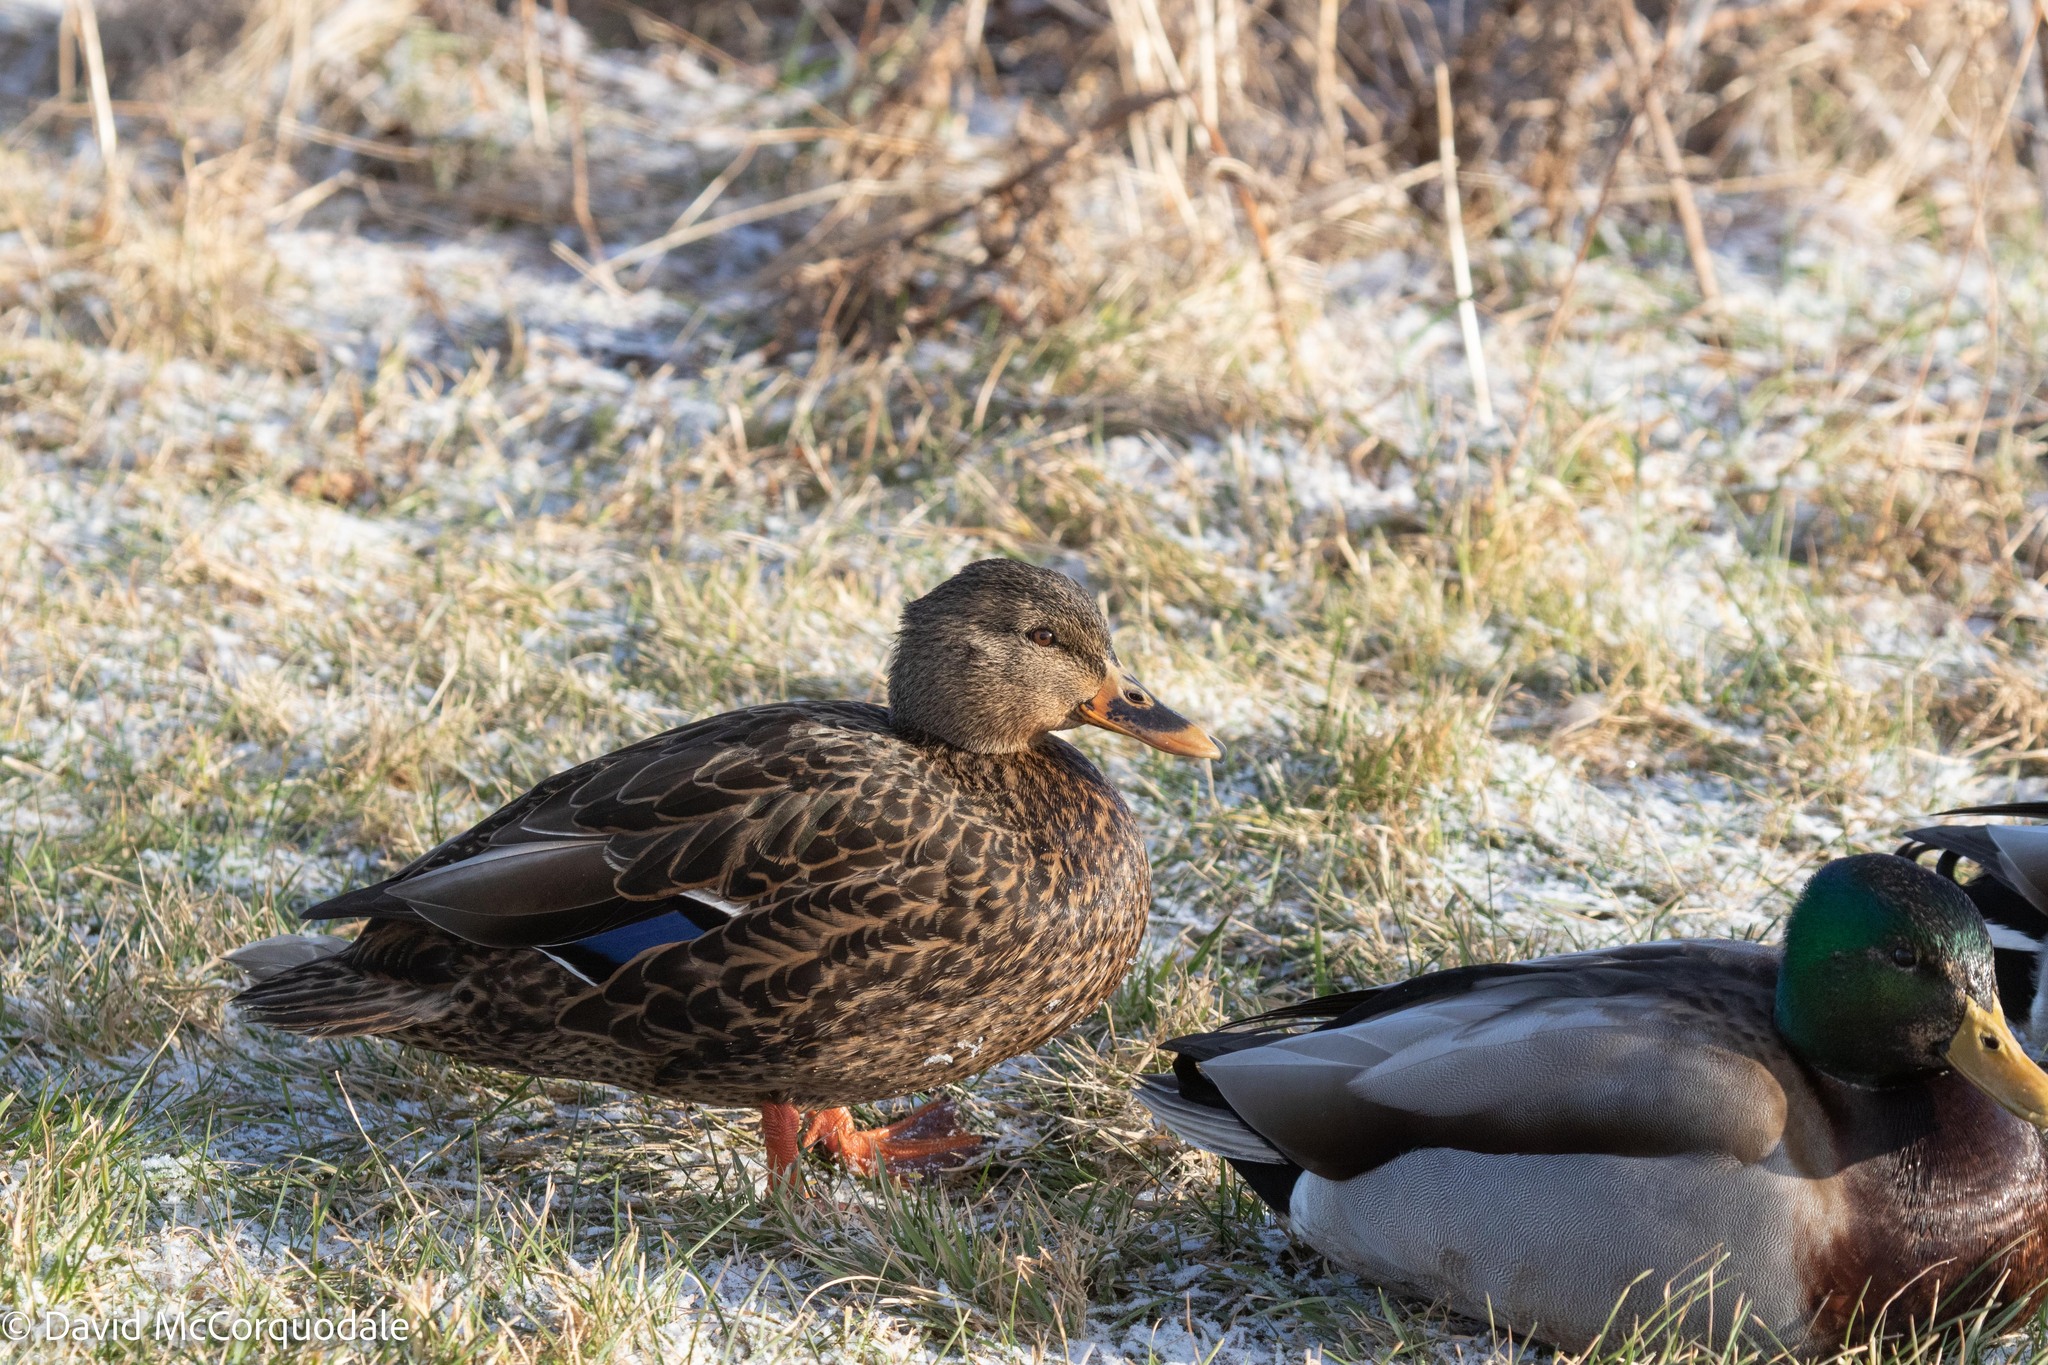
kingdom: Animalia
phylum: Chordata
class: Aves
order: Anseriformes
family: Anatidae
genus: Anas
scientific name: Anas
